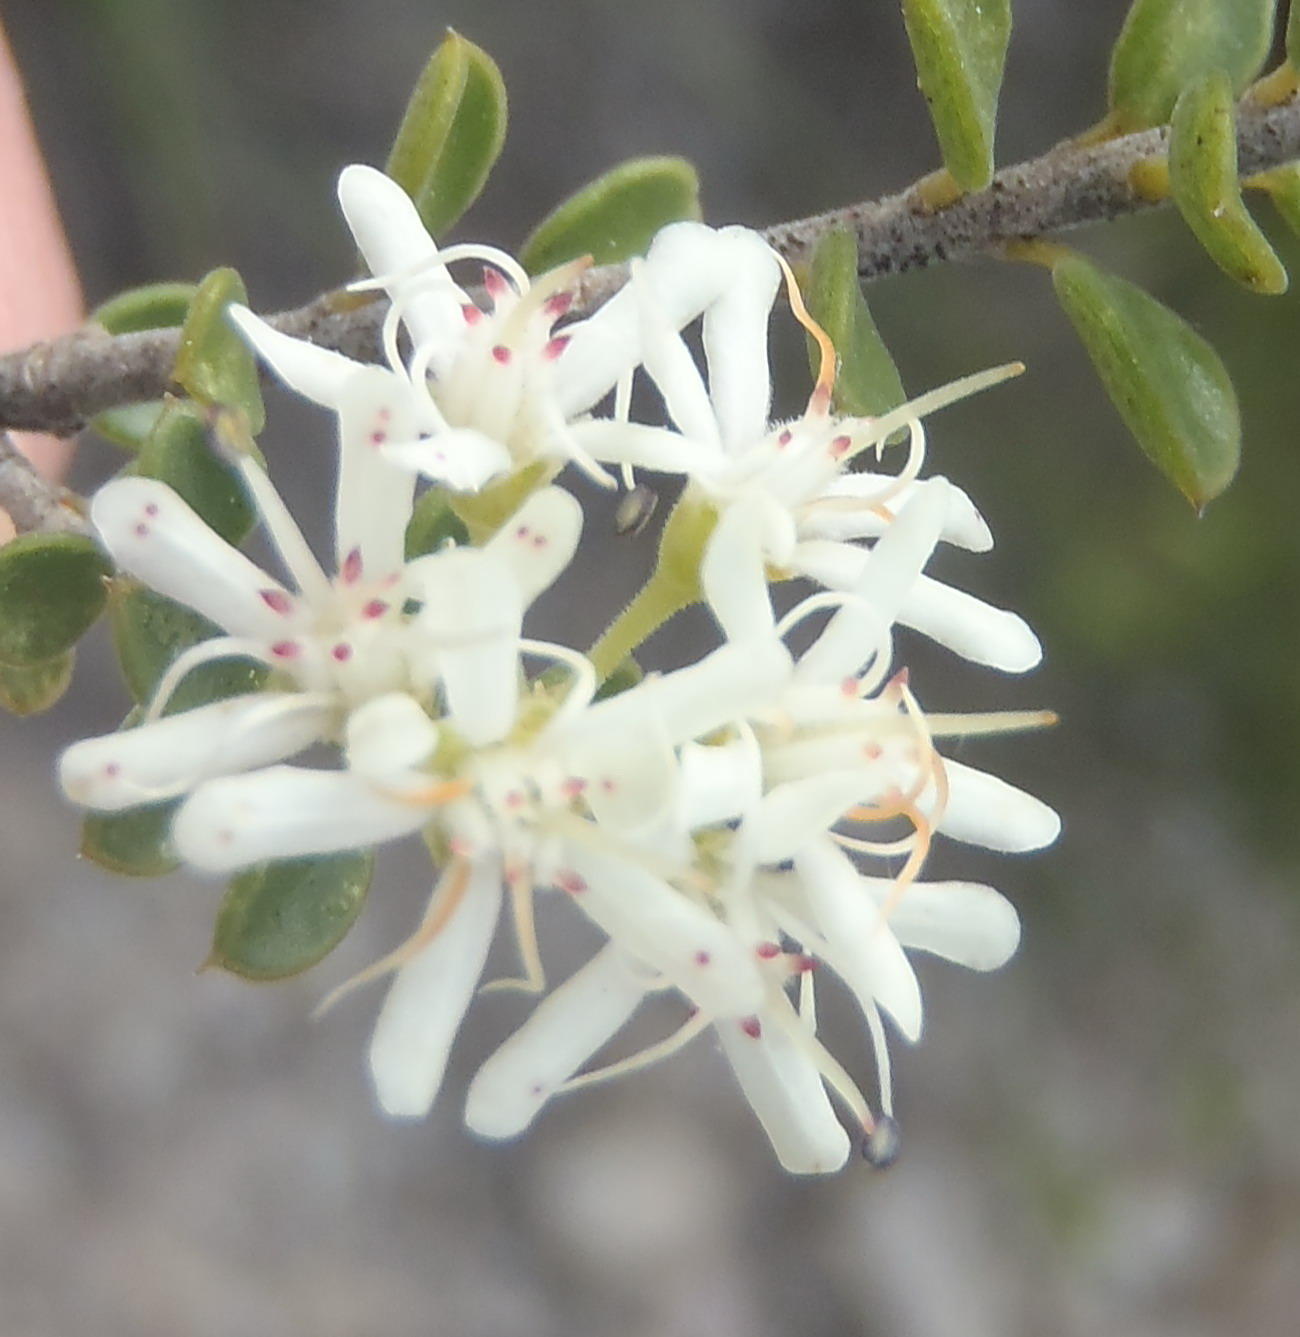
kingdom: Plantae
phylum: Tracheophyta
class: Magnoliopsida
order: Sapindales
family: Rutaceae
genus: Agathosma
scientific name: Agathosma recurvifolia
